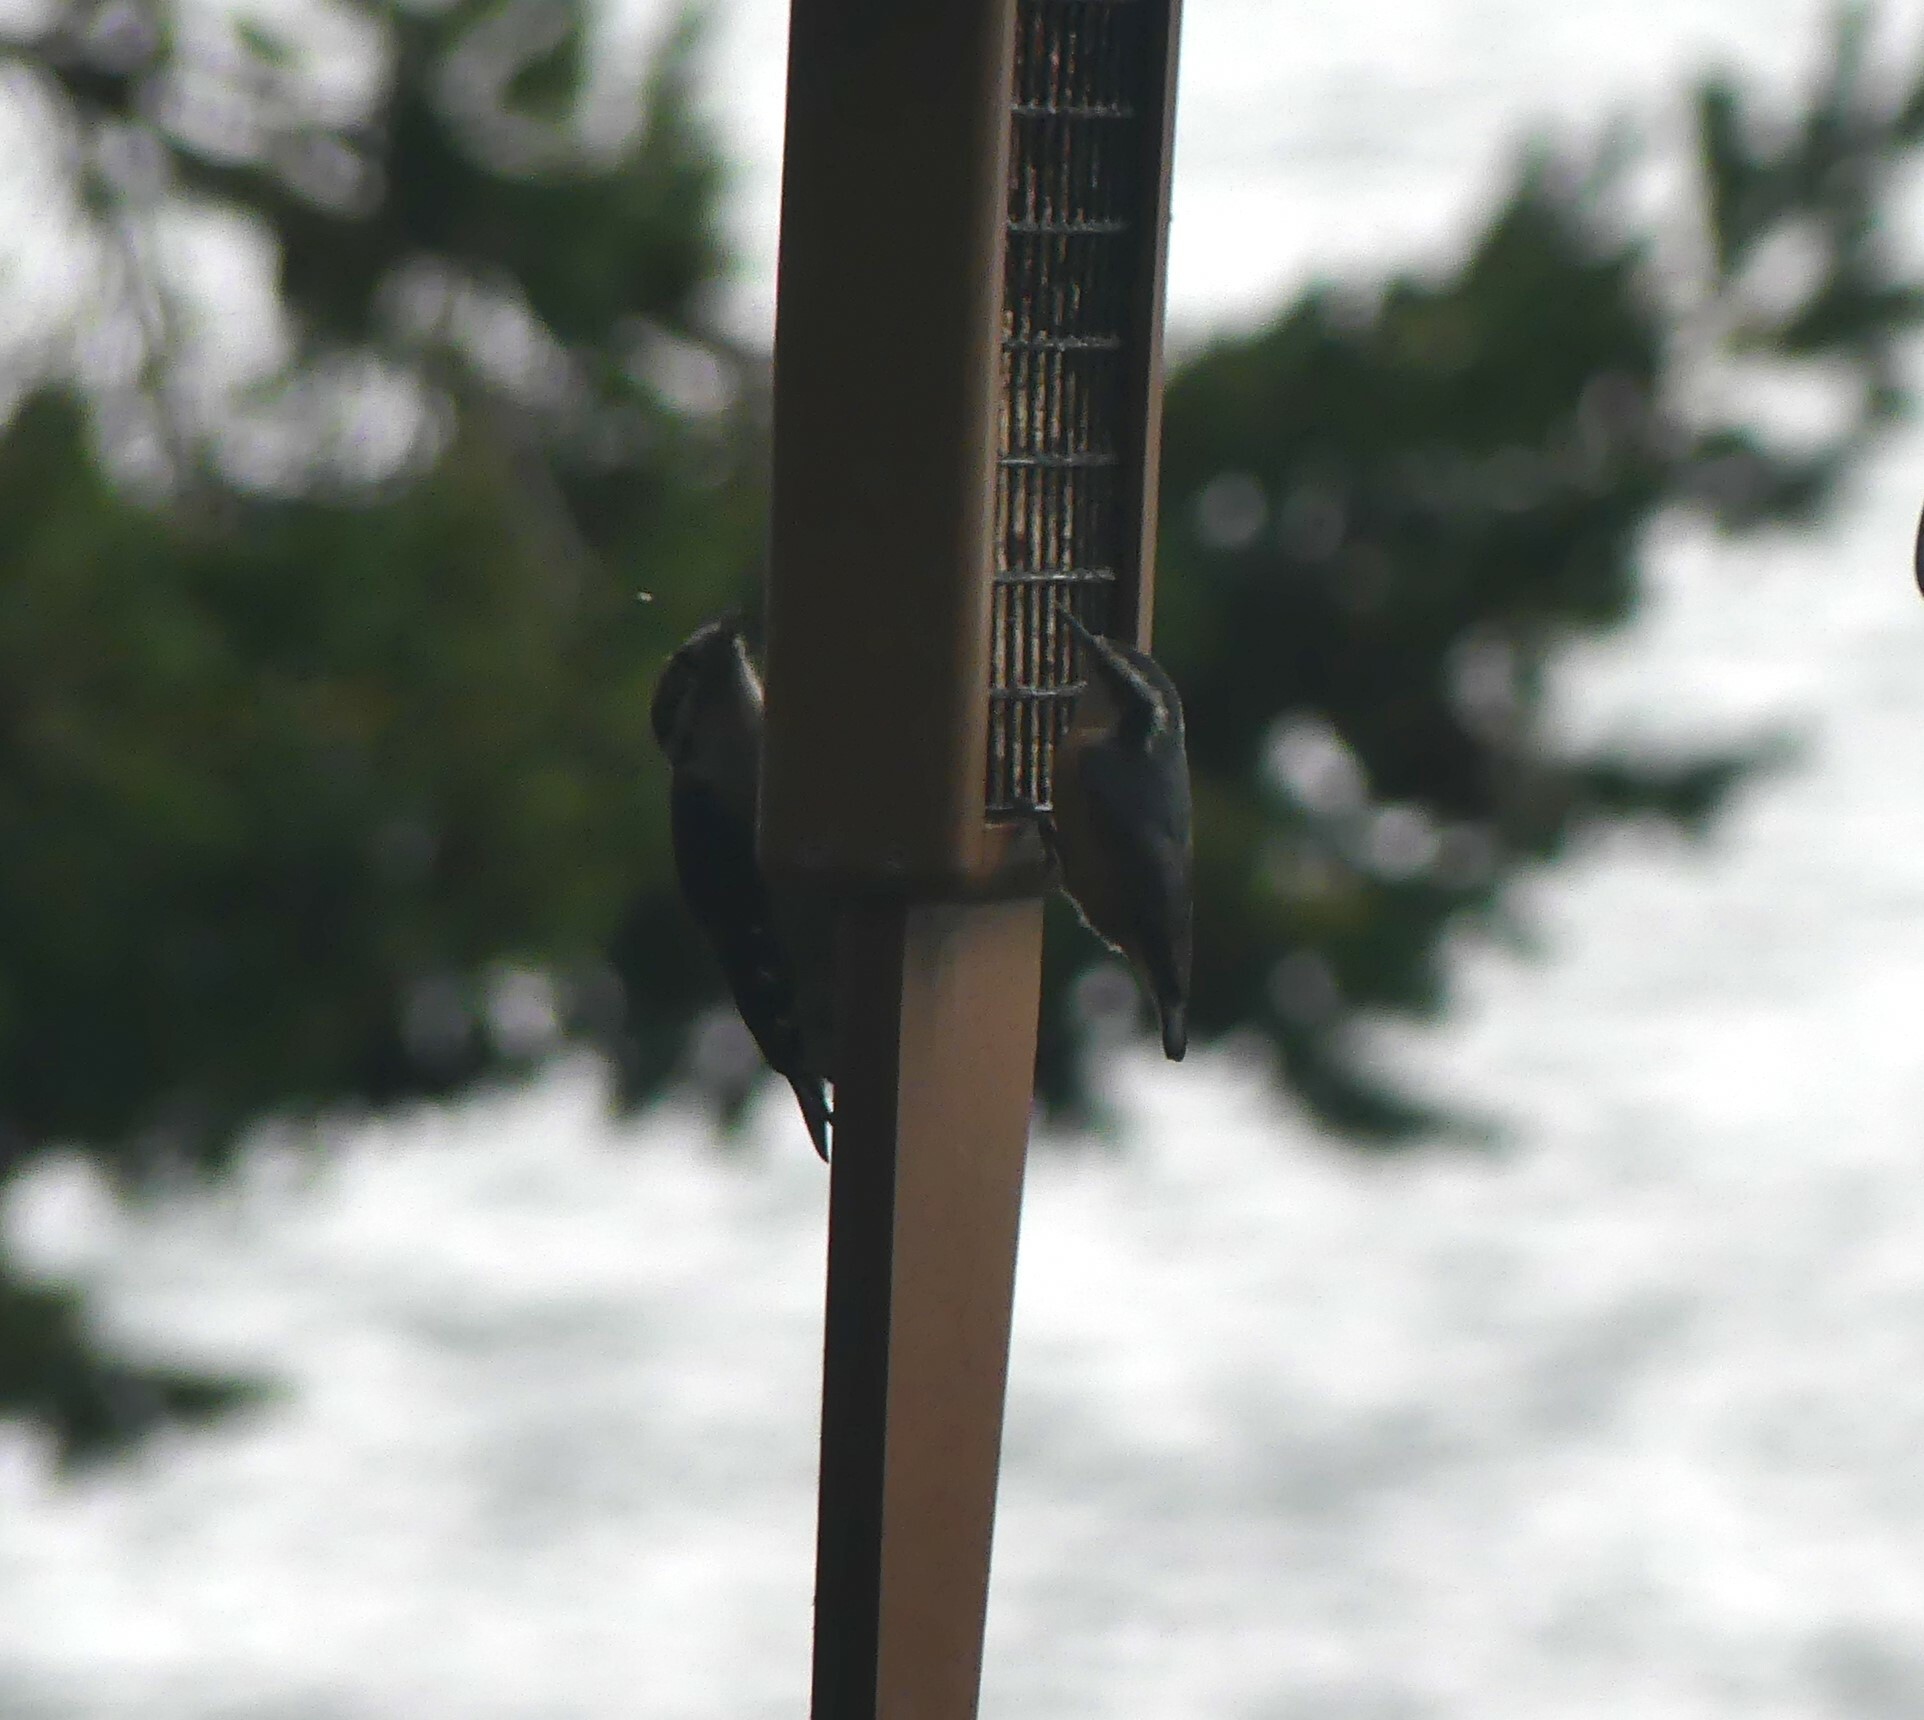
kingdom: Animalia
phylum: Chordata
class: Aves
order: Passeriformes
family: Sittidae
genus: Sitta
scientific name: Sitta canadensis
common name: Red-breasted nuthatch
